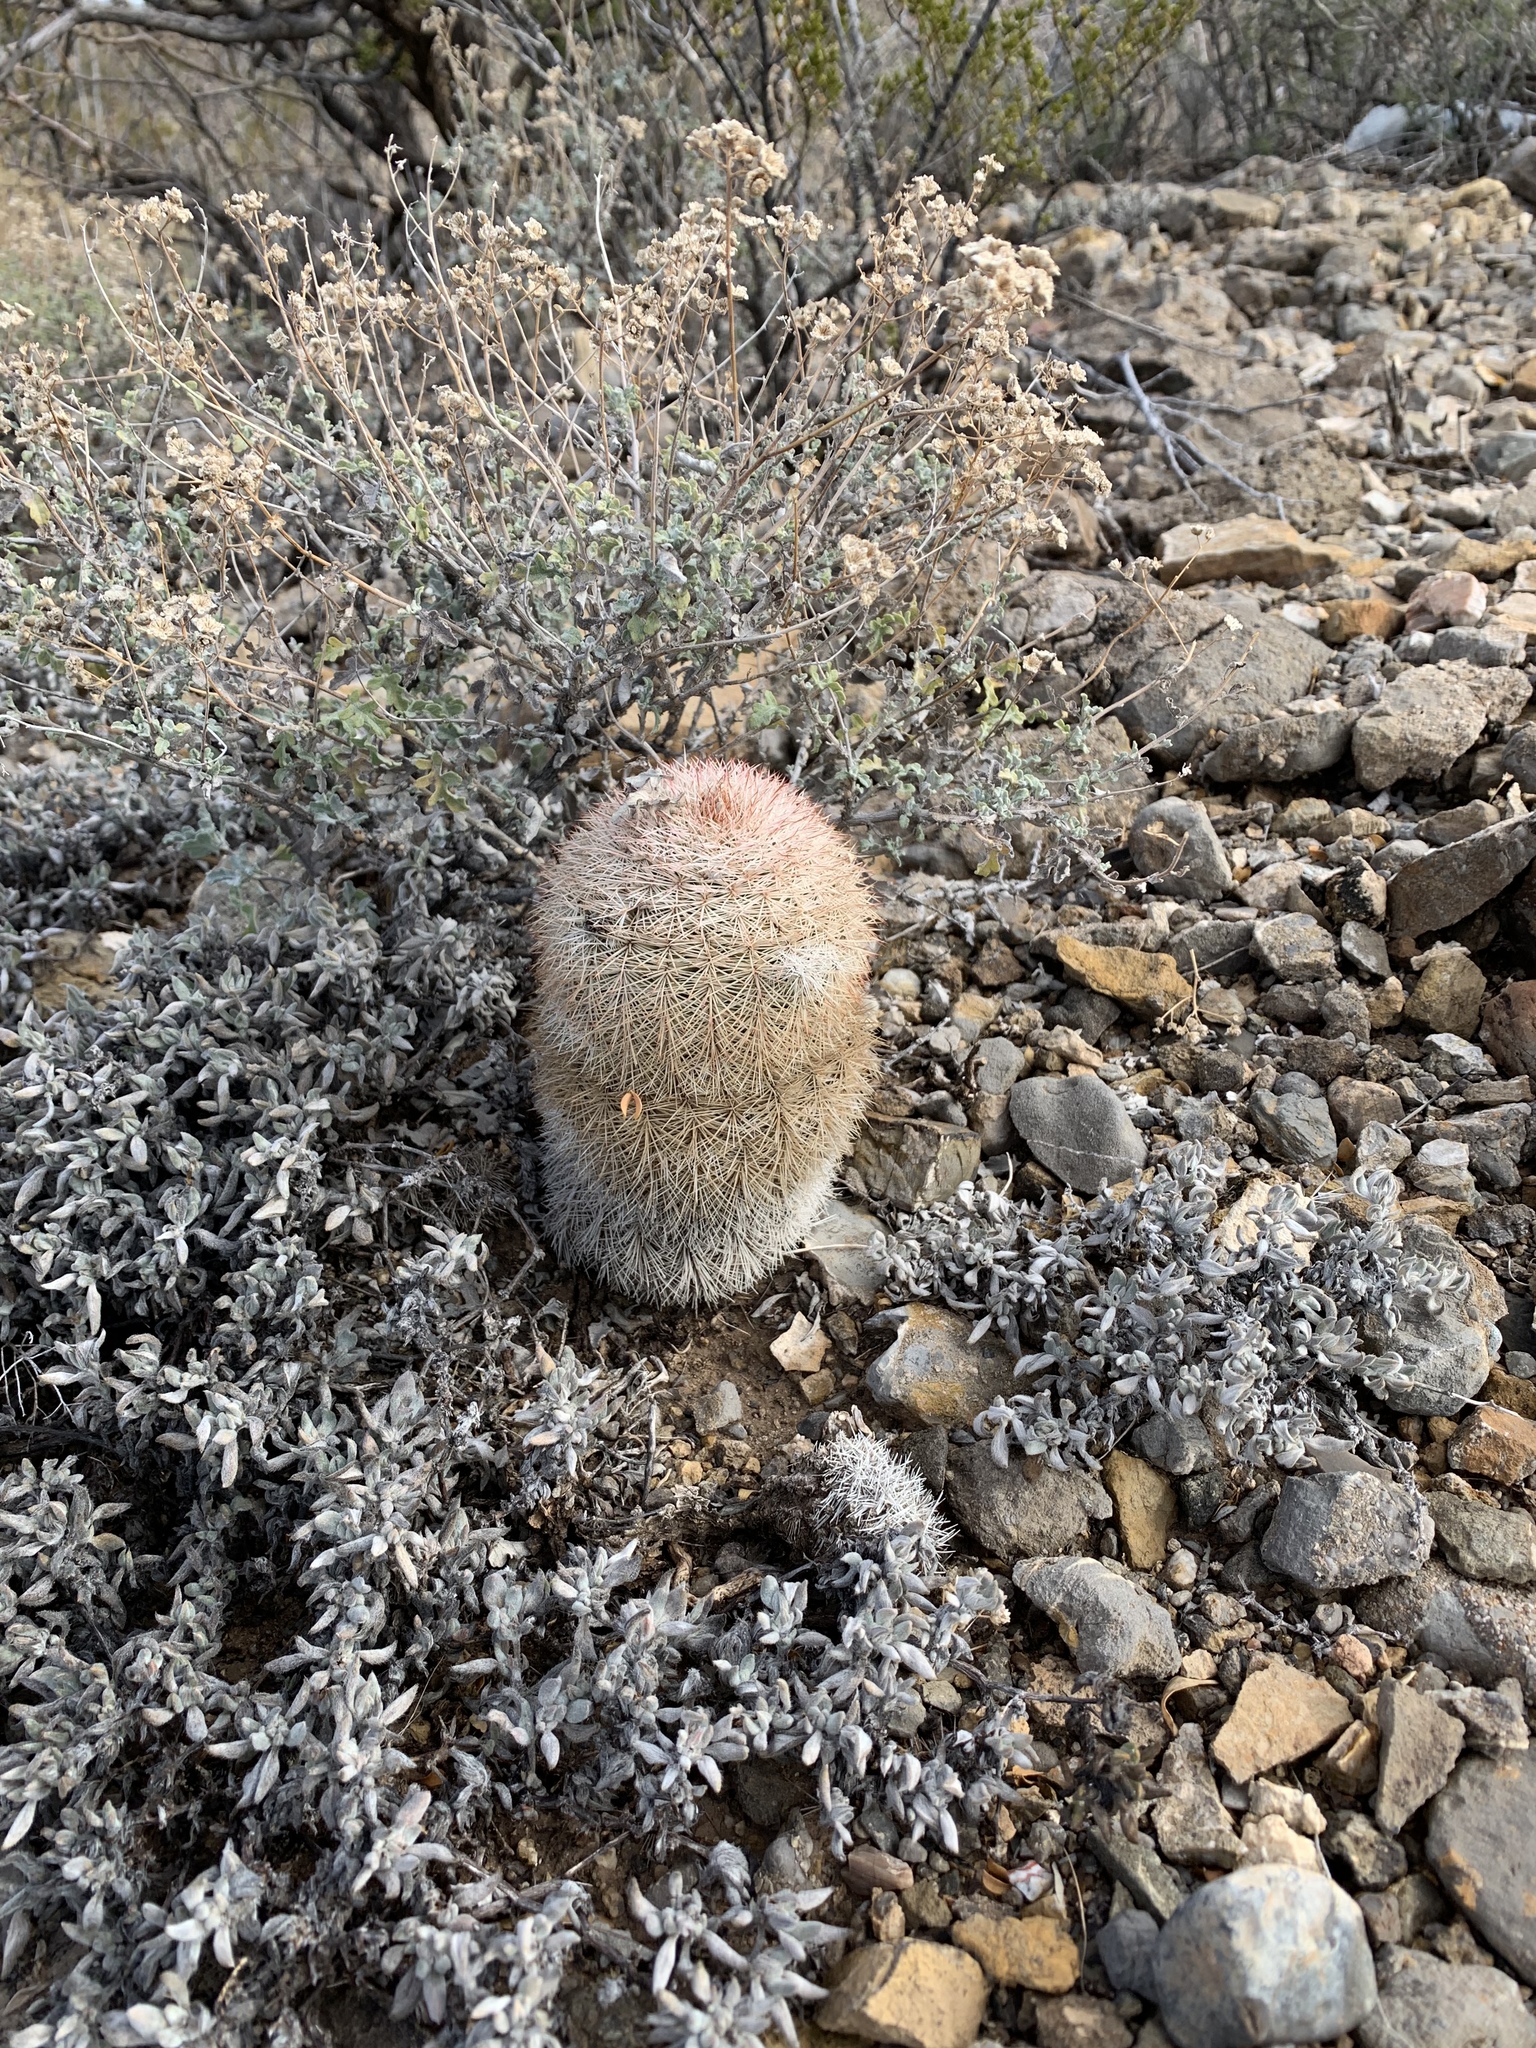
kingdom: Plantae
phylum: Tracheophyta
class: Magnoliopsida
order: Caryophyllales
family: Cactaceae
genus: Echinocereus
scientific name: Echinocereus dasyacanthus
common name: Spiny hedgehog cactus
